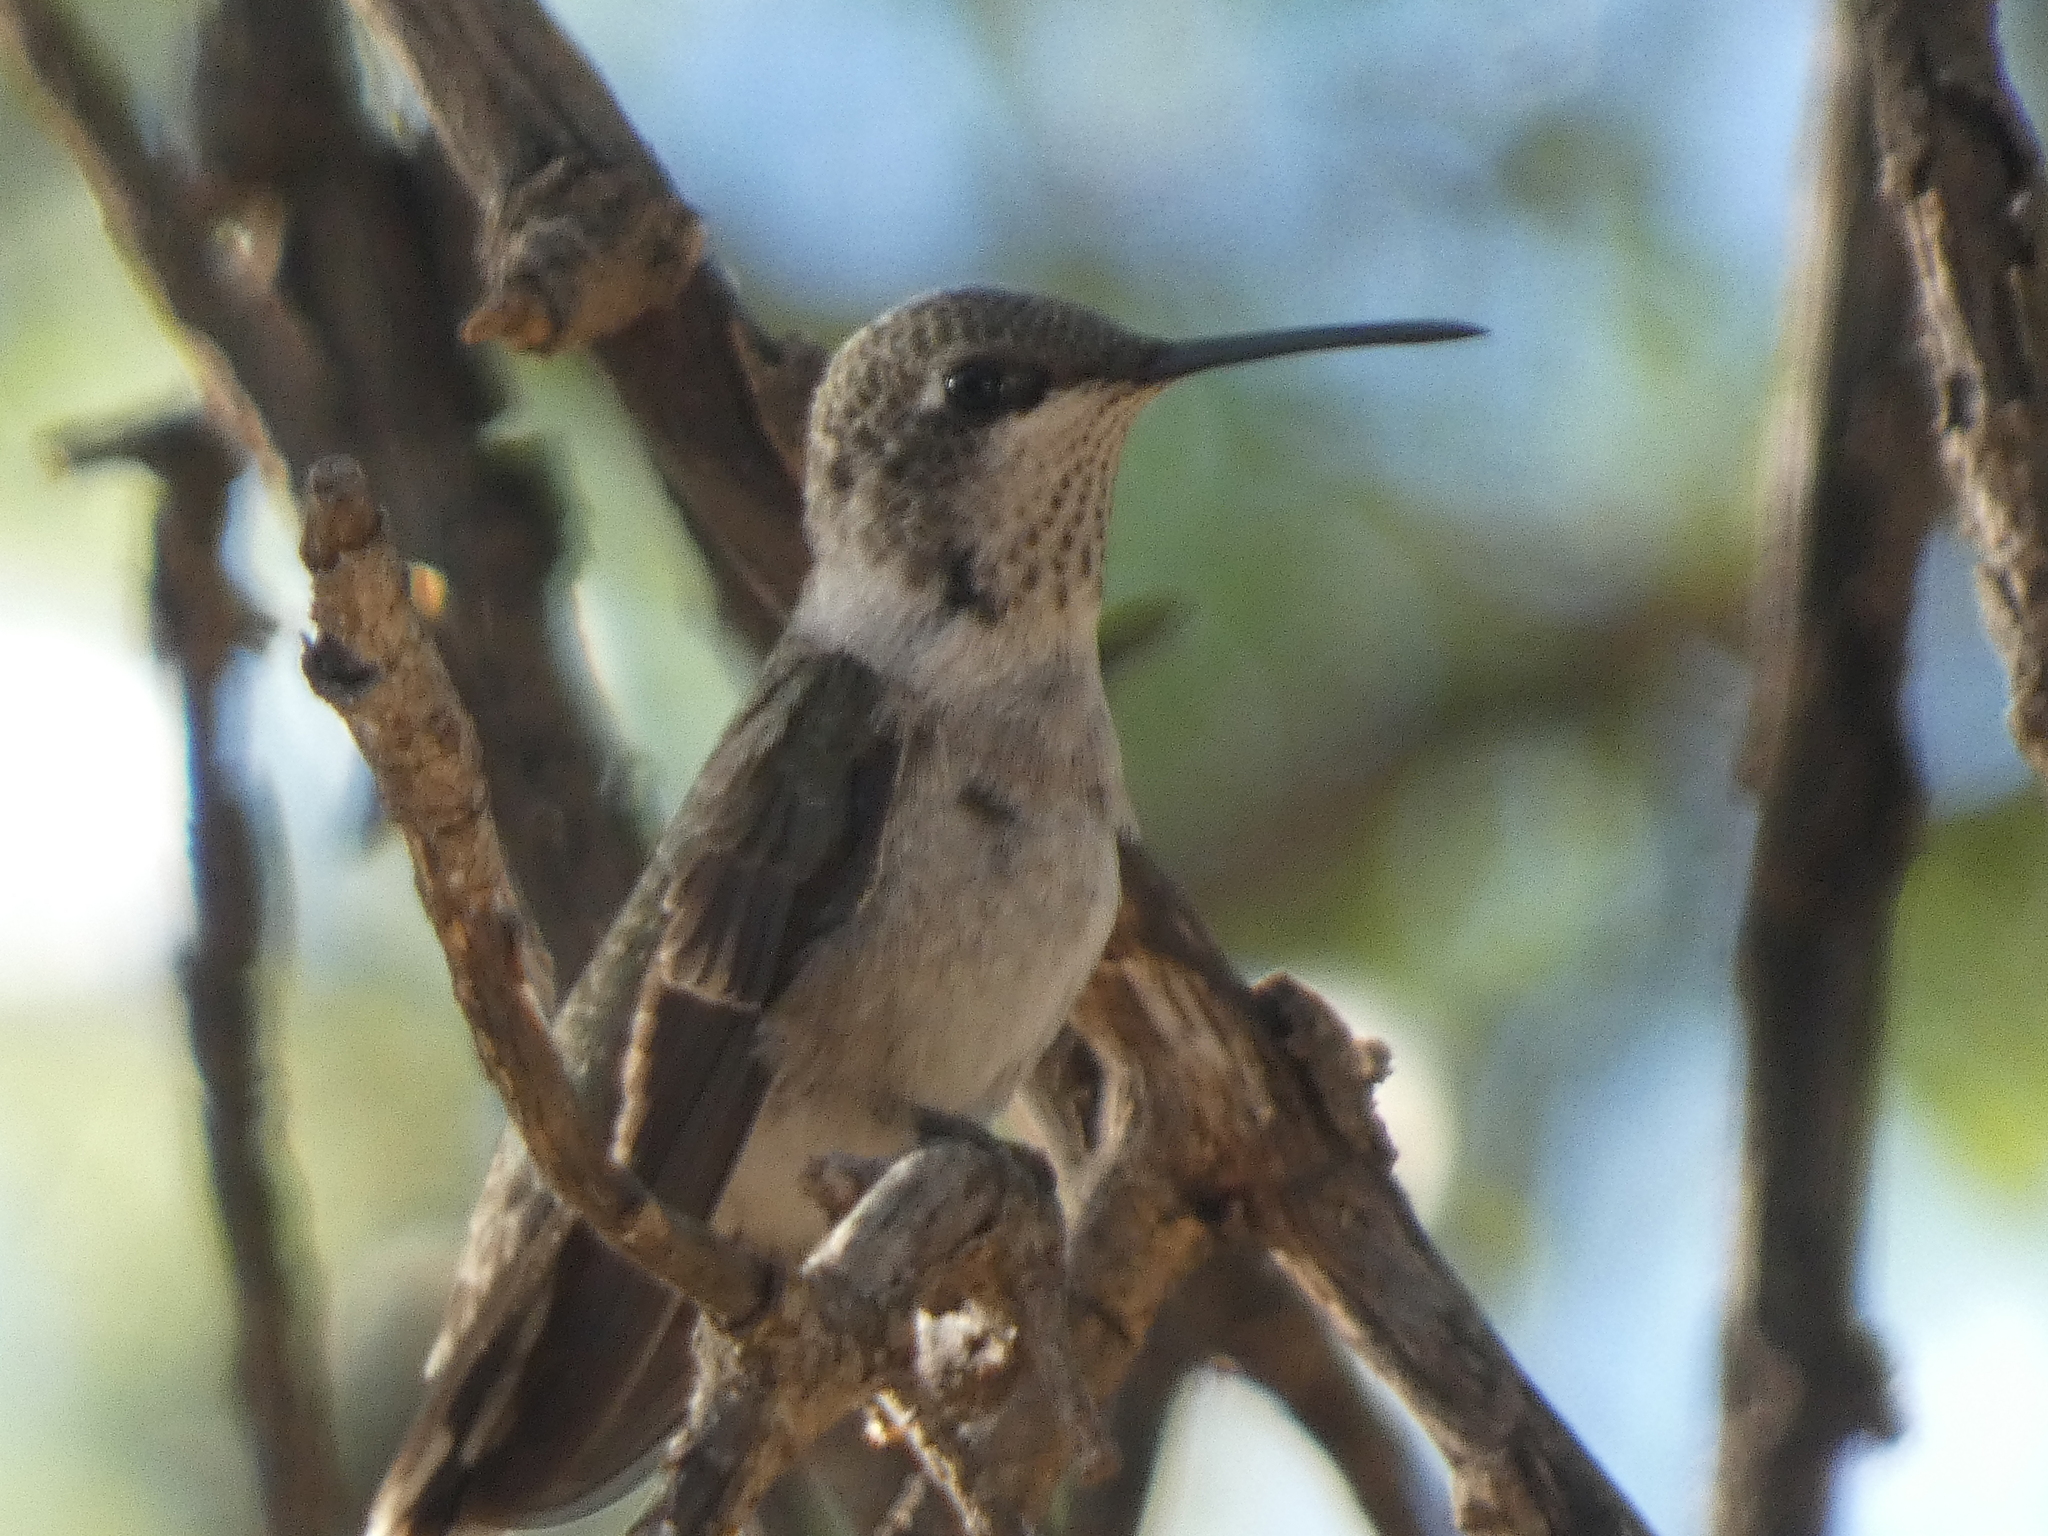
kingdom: Animalia
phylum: Chordata
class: Aves
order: Apodiformes
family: Trochilidae
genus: Archilochus
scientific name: Archilochus alexandri
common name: Black-chinned hummingbird
